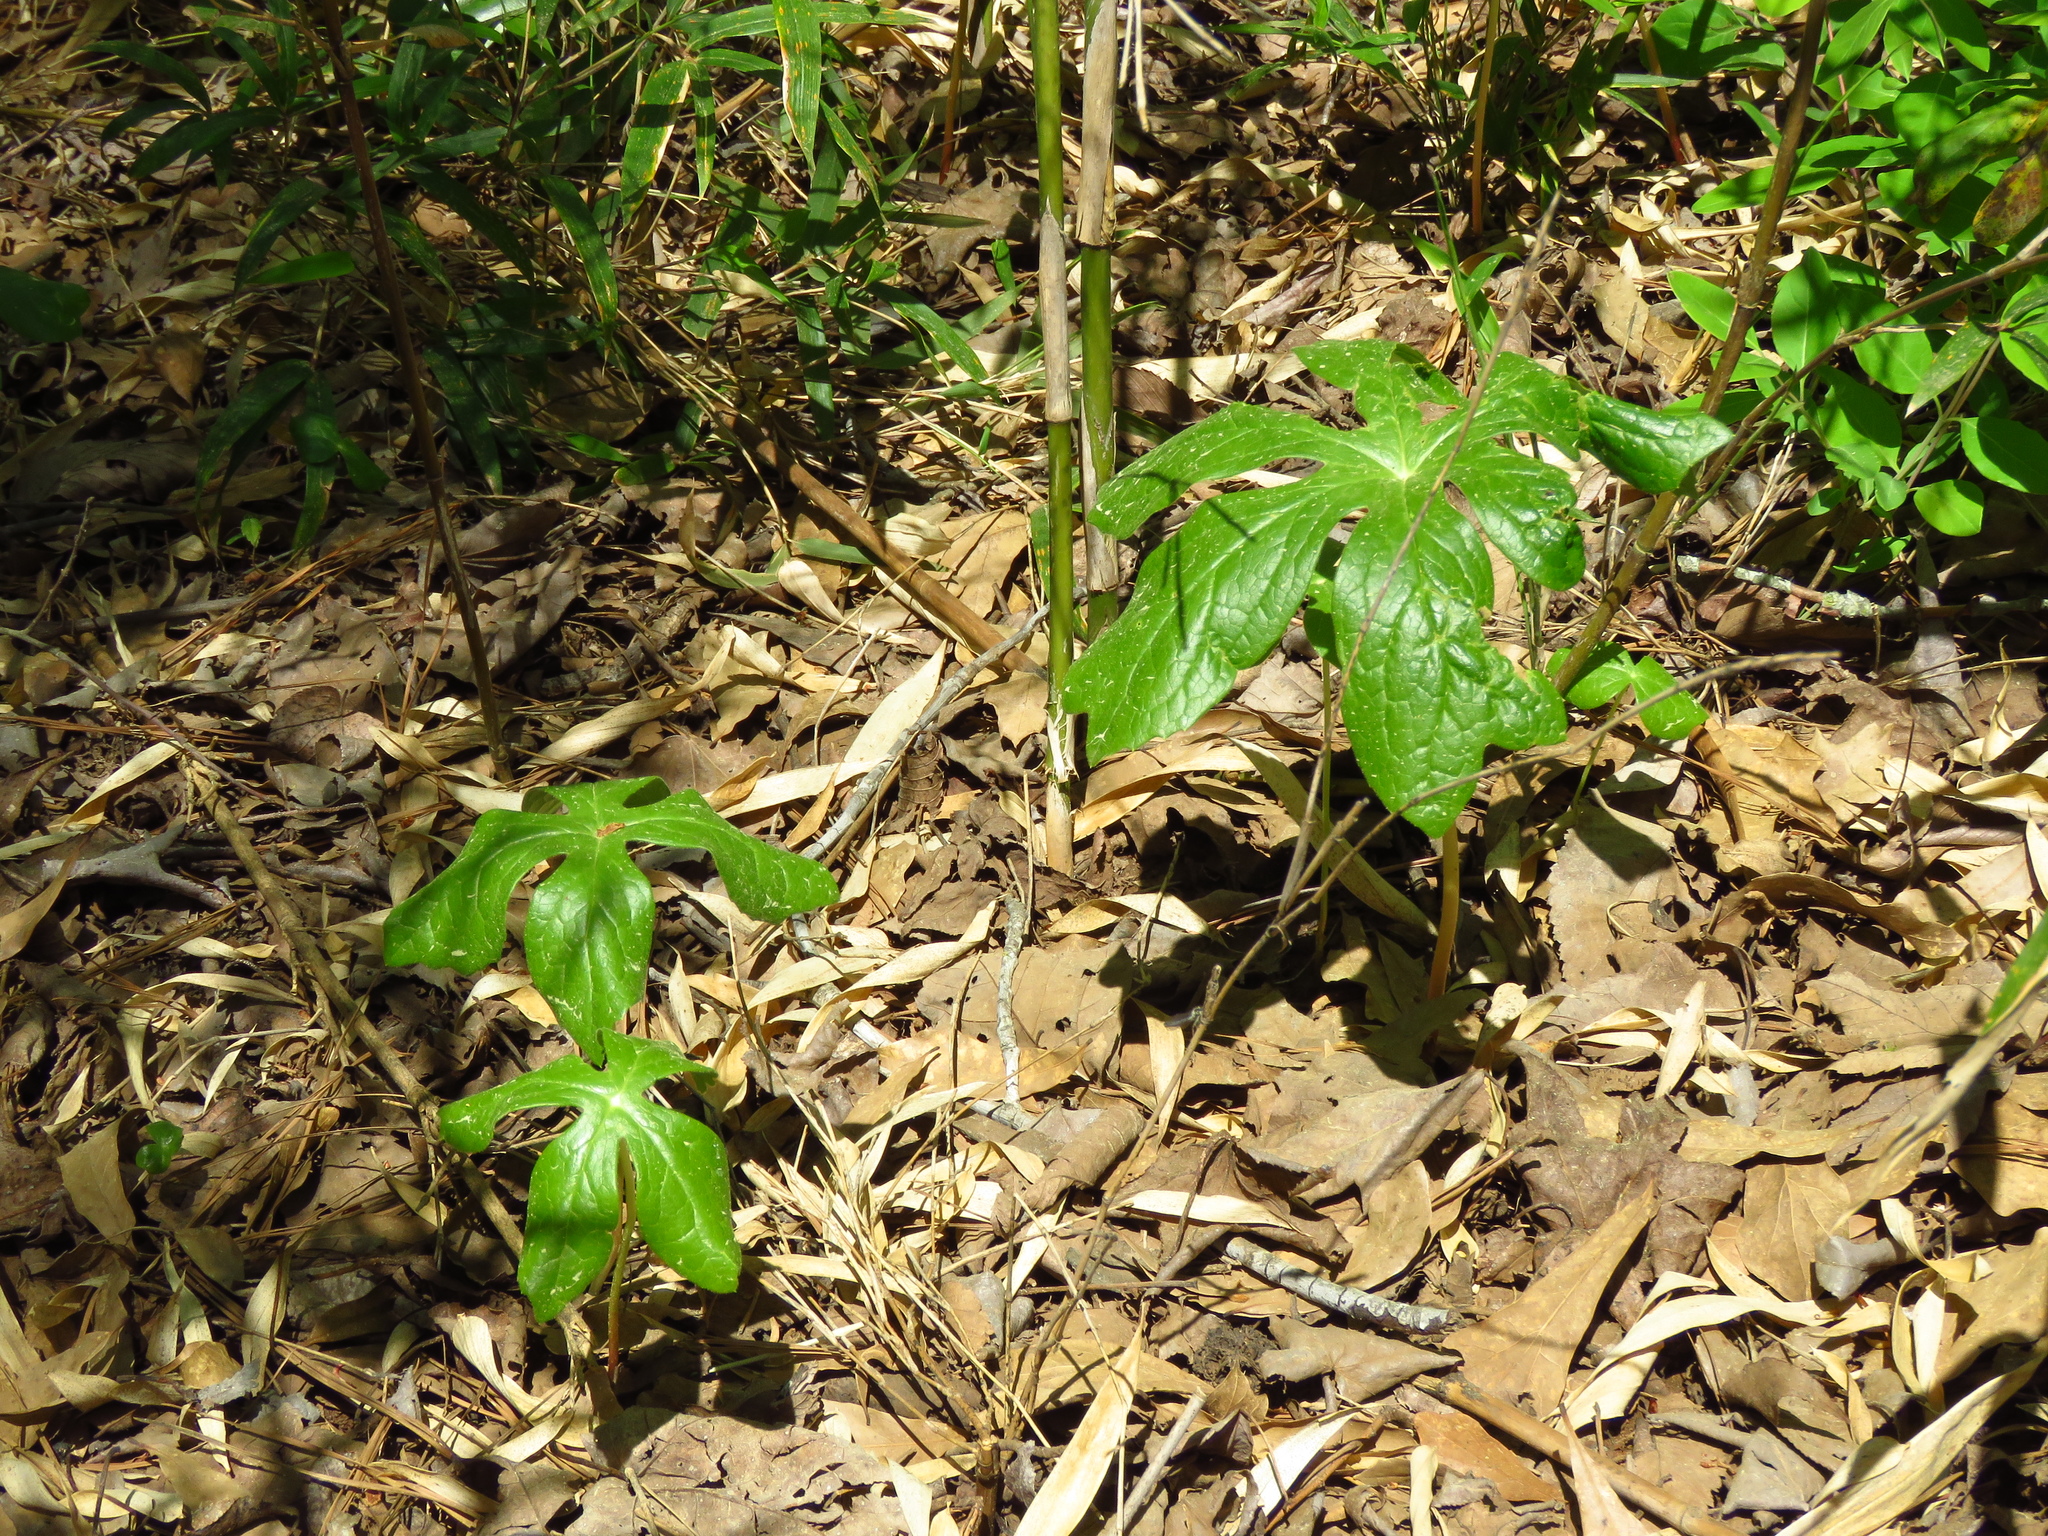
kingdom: Plantae
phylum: Tracheophyta
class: Magnoliopsida
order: Ranunculales
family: Berberidaceae
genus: Podophyllum
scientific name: Podophyllum peltatum
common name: Wild mandrake
